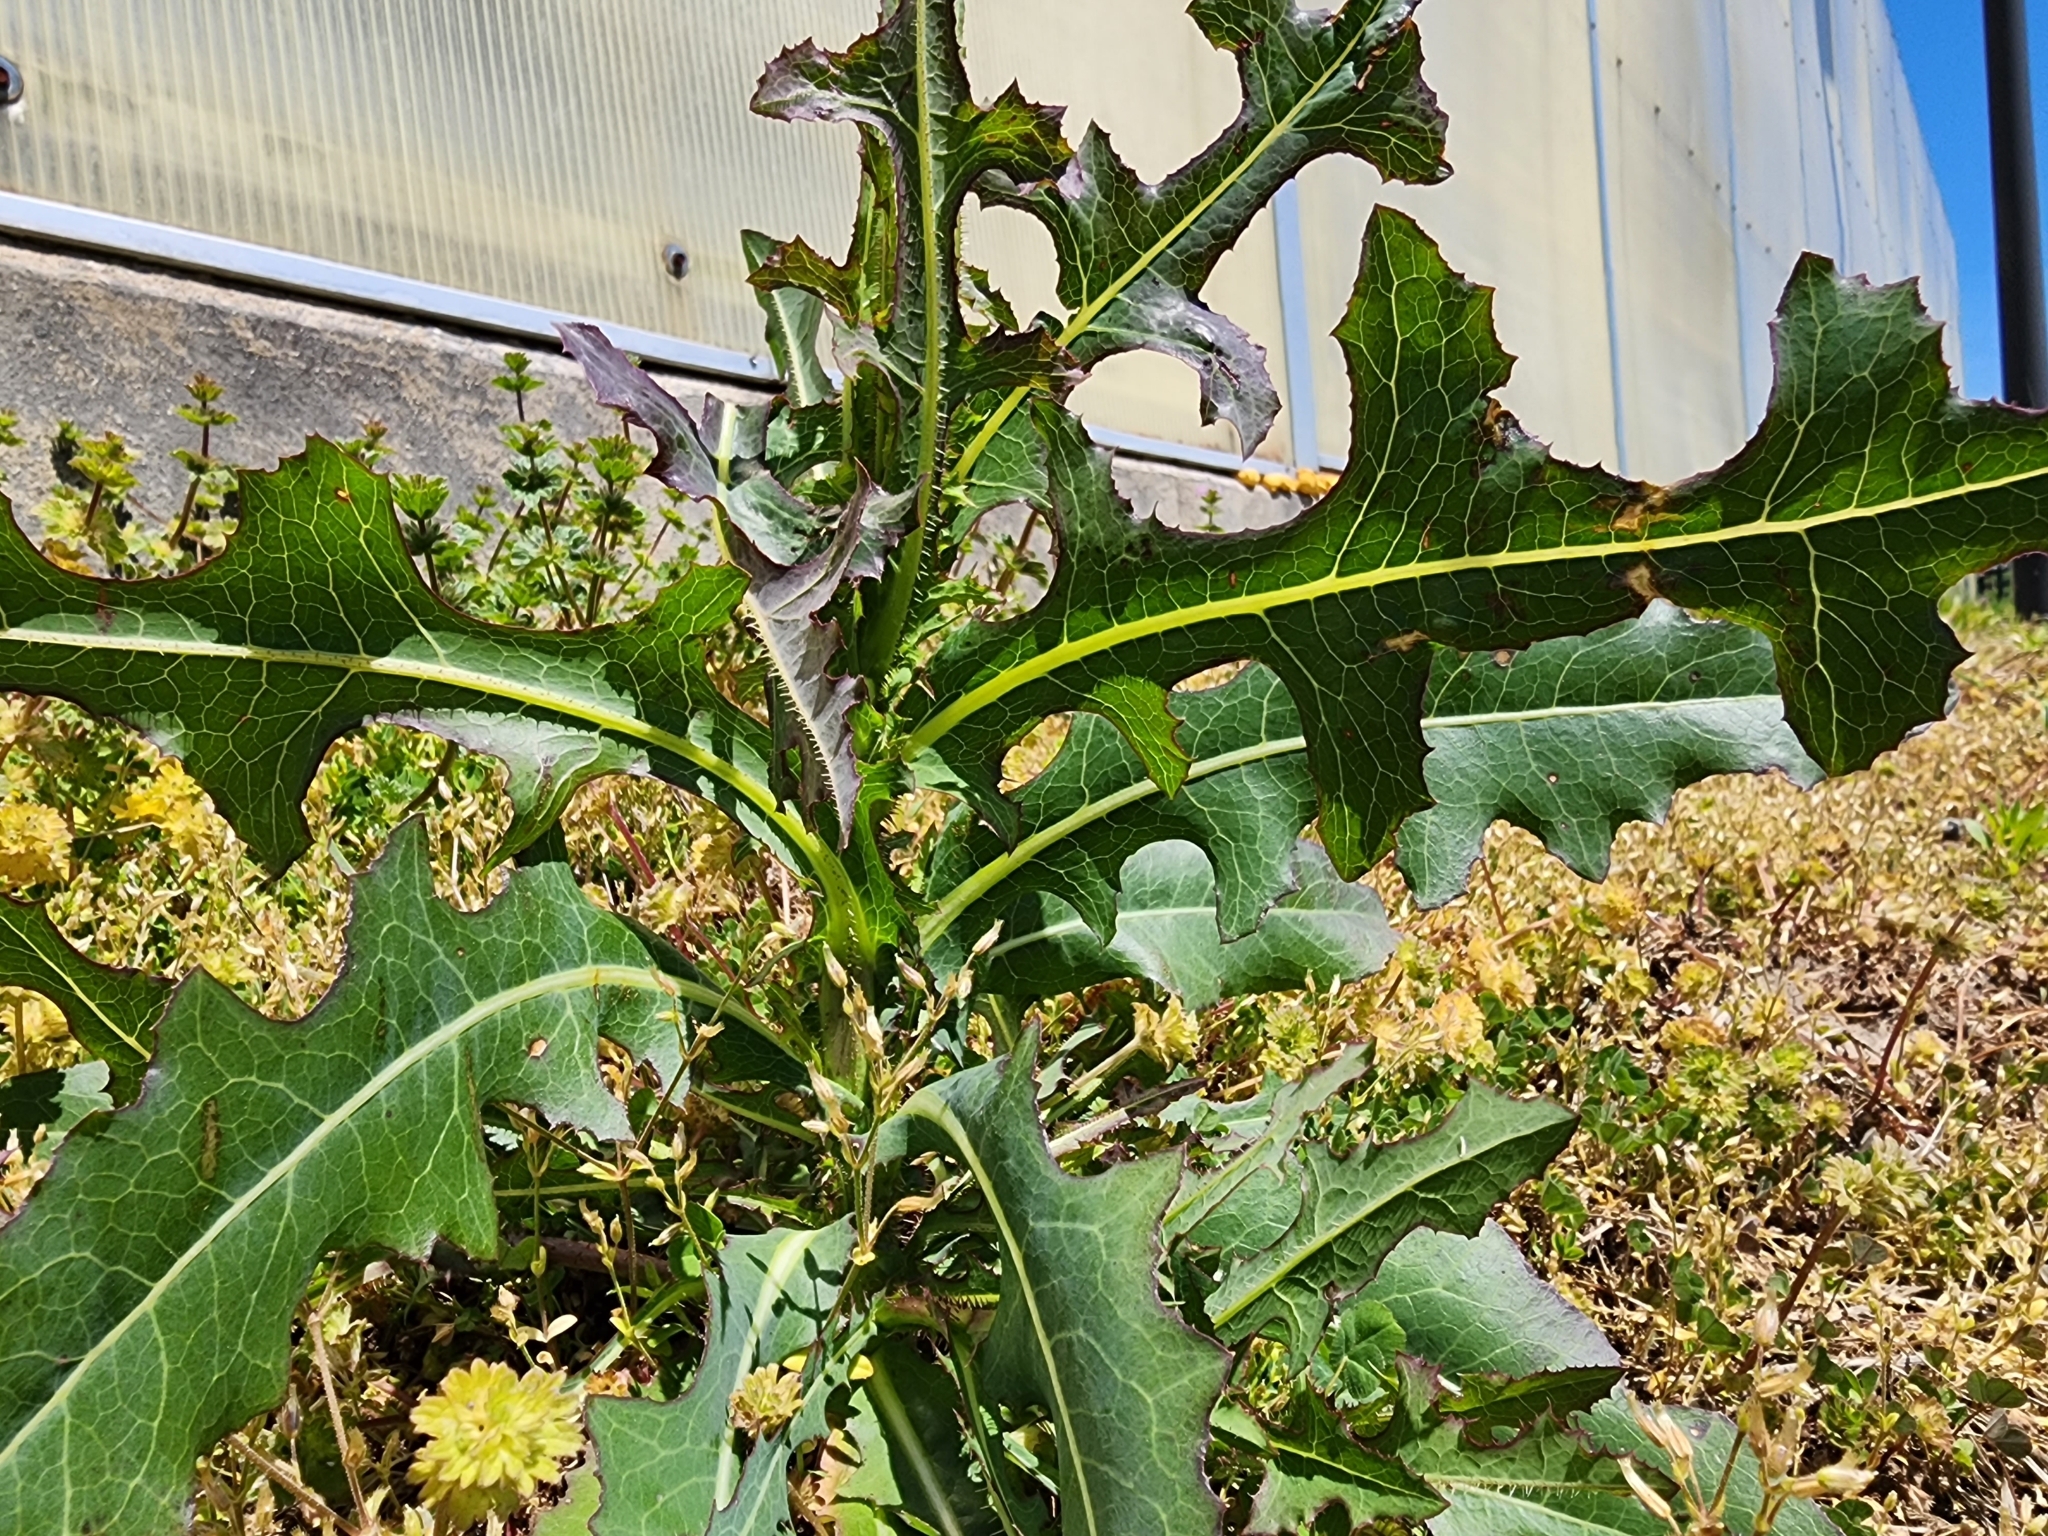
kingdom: Plantae
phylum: Tracheophyta
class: Magnoliopsida
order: Asterales
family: Asteraceae
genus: Lactuca
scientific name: Lactuca serriola
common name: Prickly lettuce
